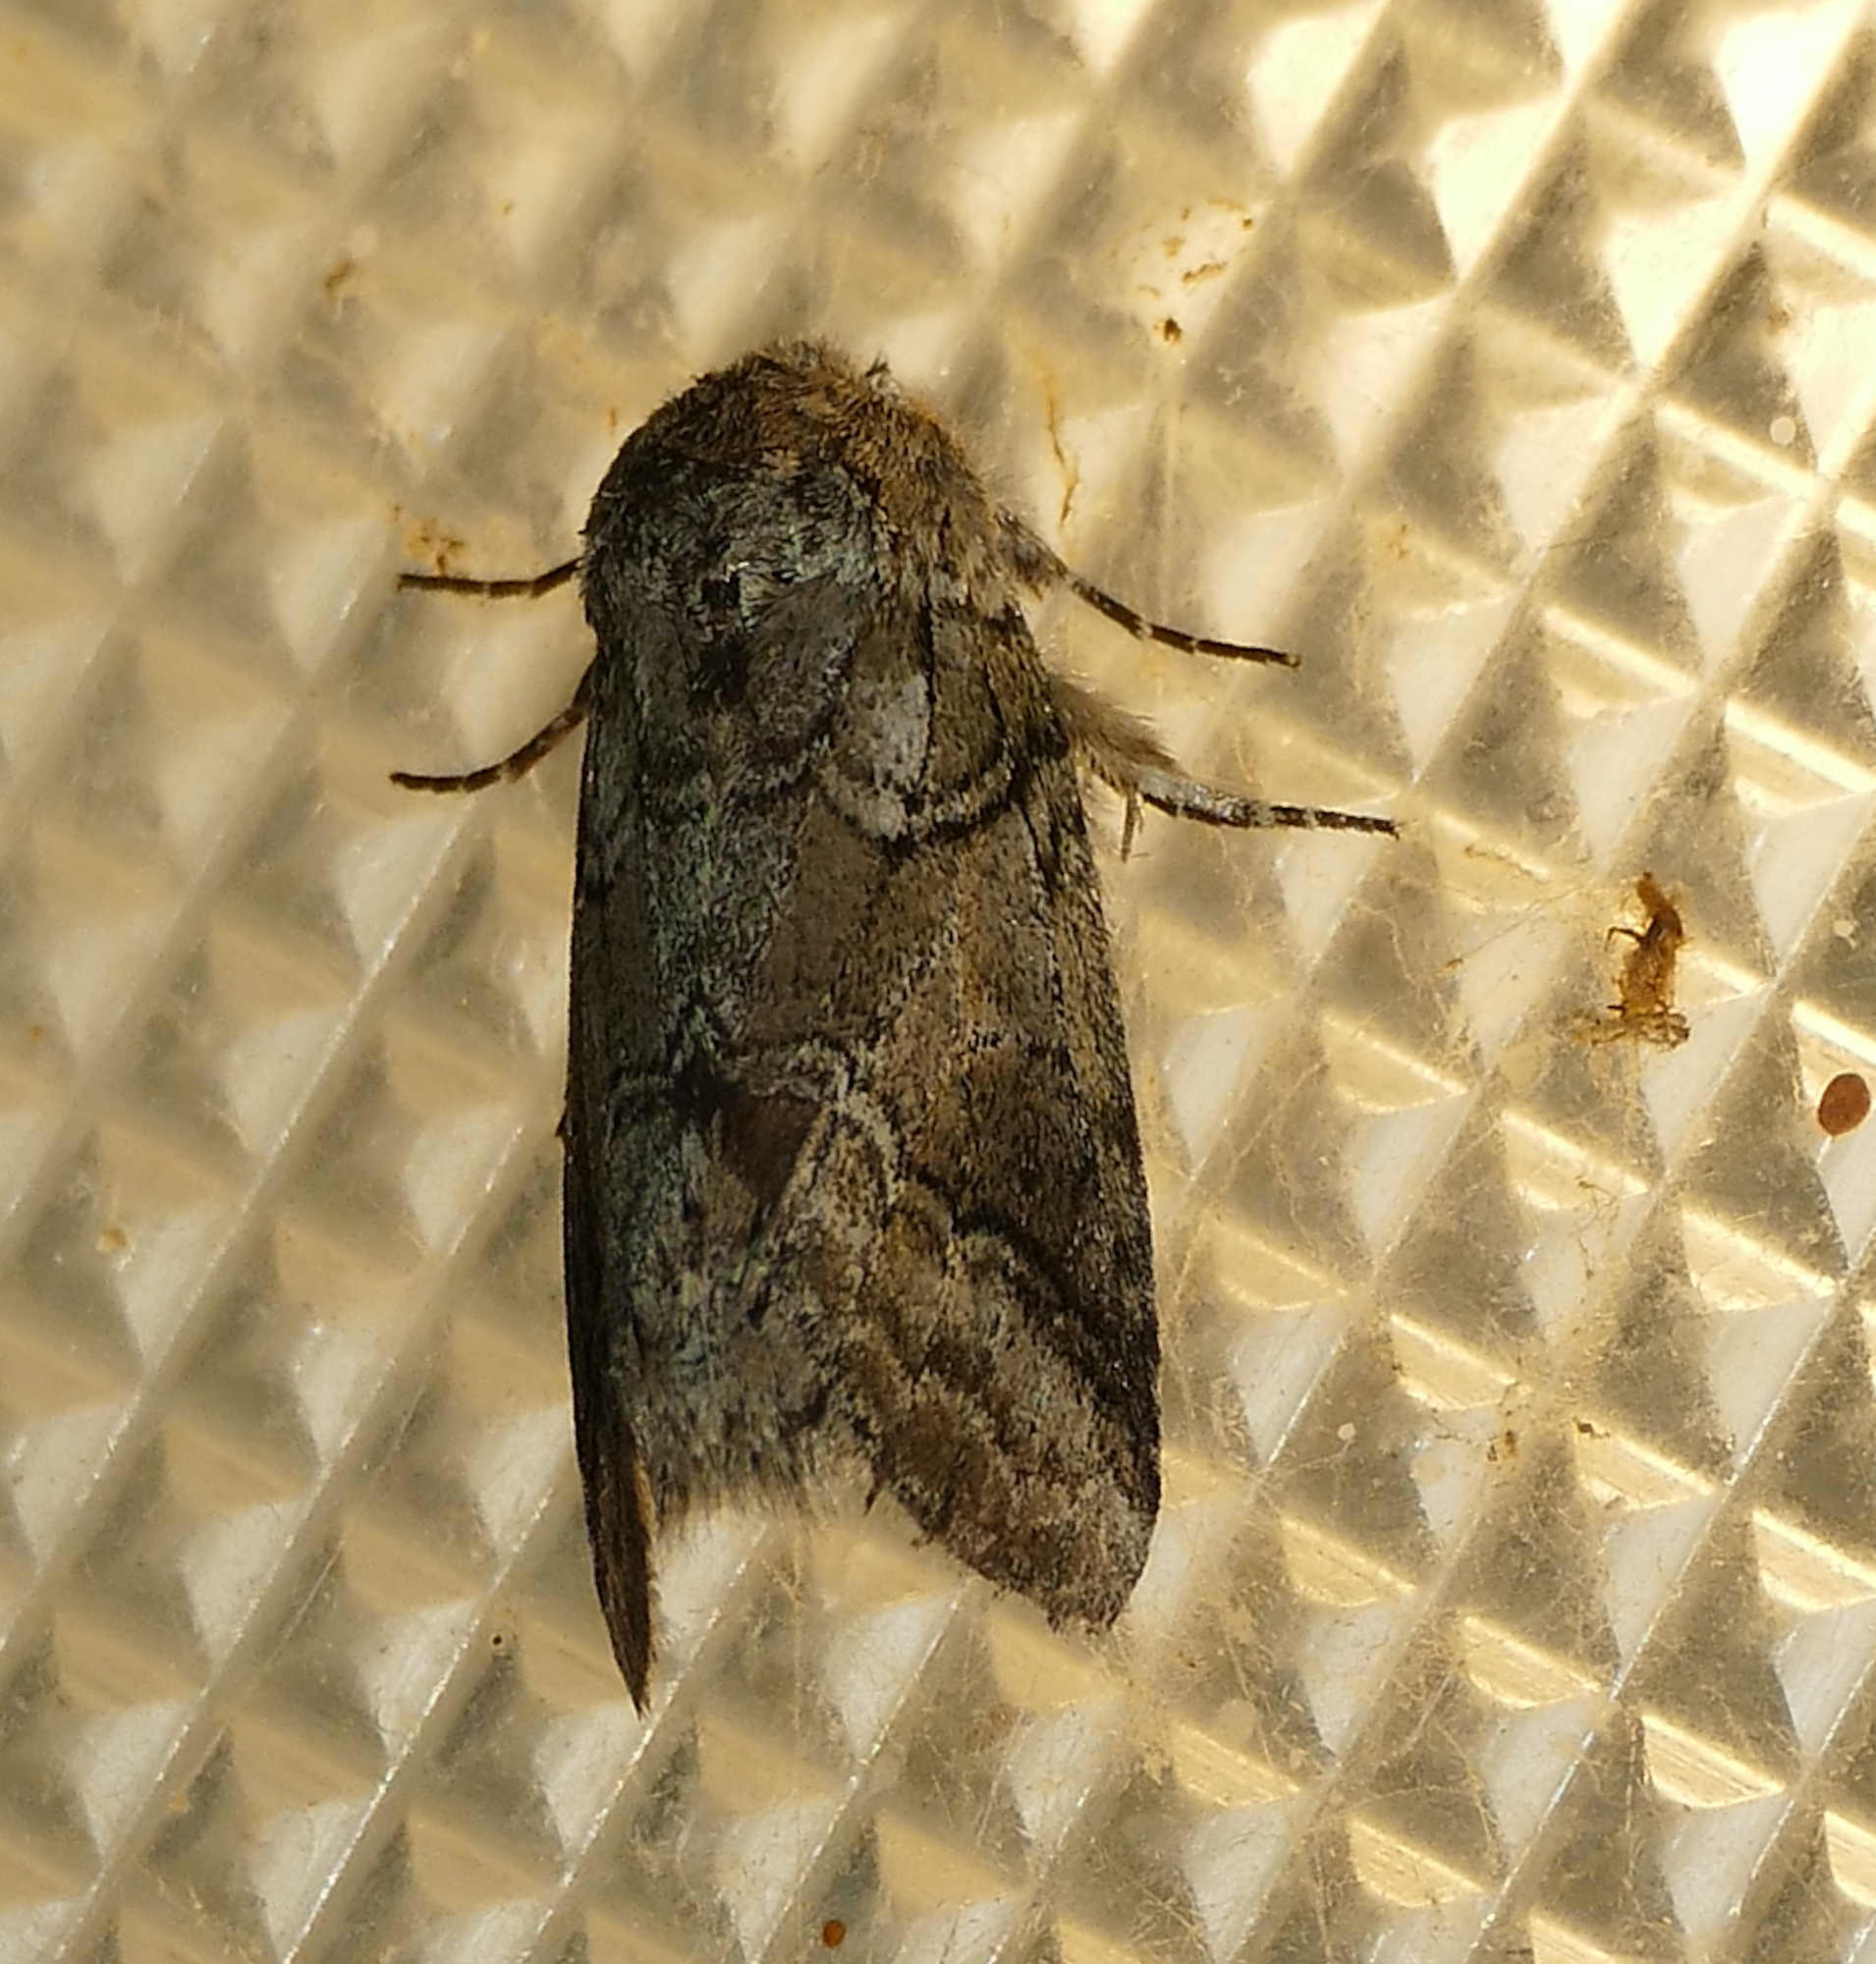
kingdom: Animalia
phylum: Arthropoda
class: Insecta
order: Lepidoptera
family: Notodontidae
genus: Lochmaeus
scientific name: Lochmaeus bilineata
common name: Double-lined prominent
